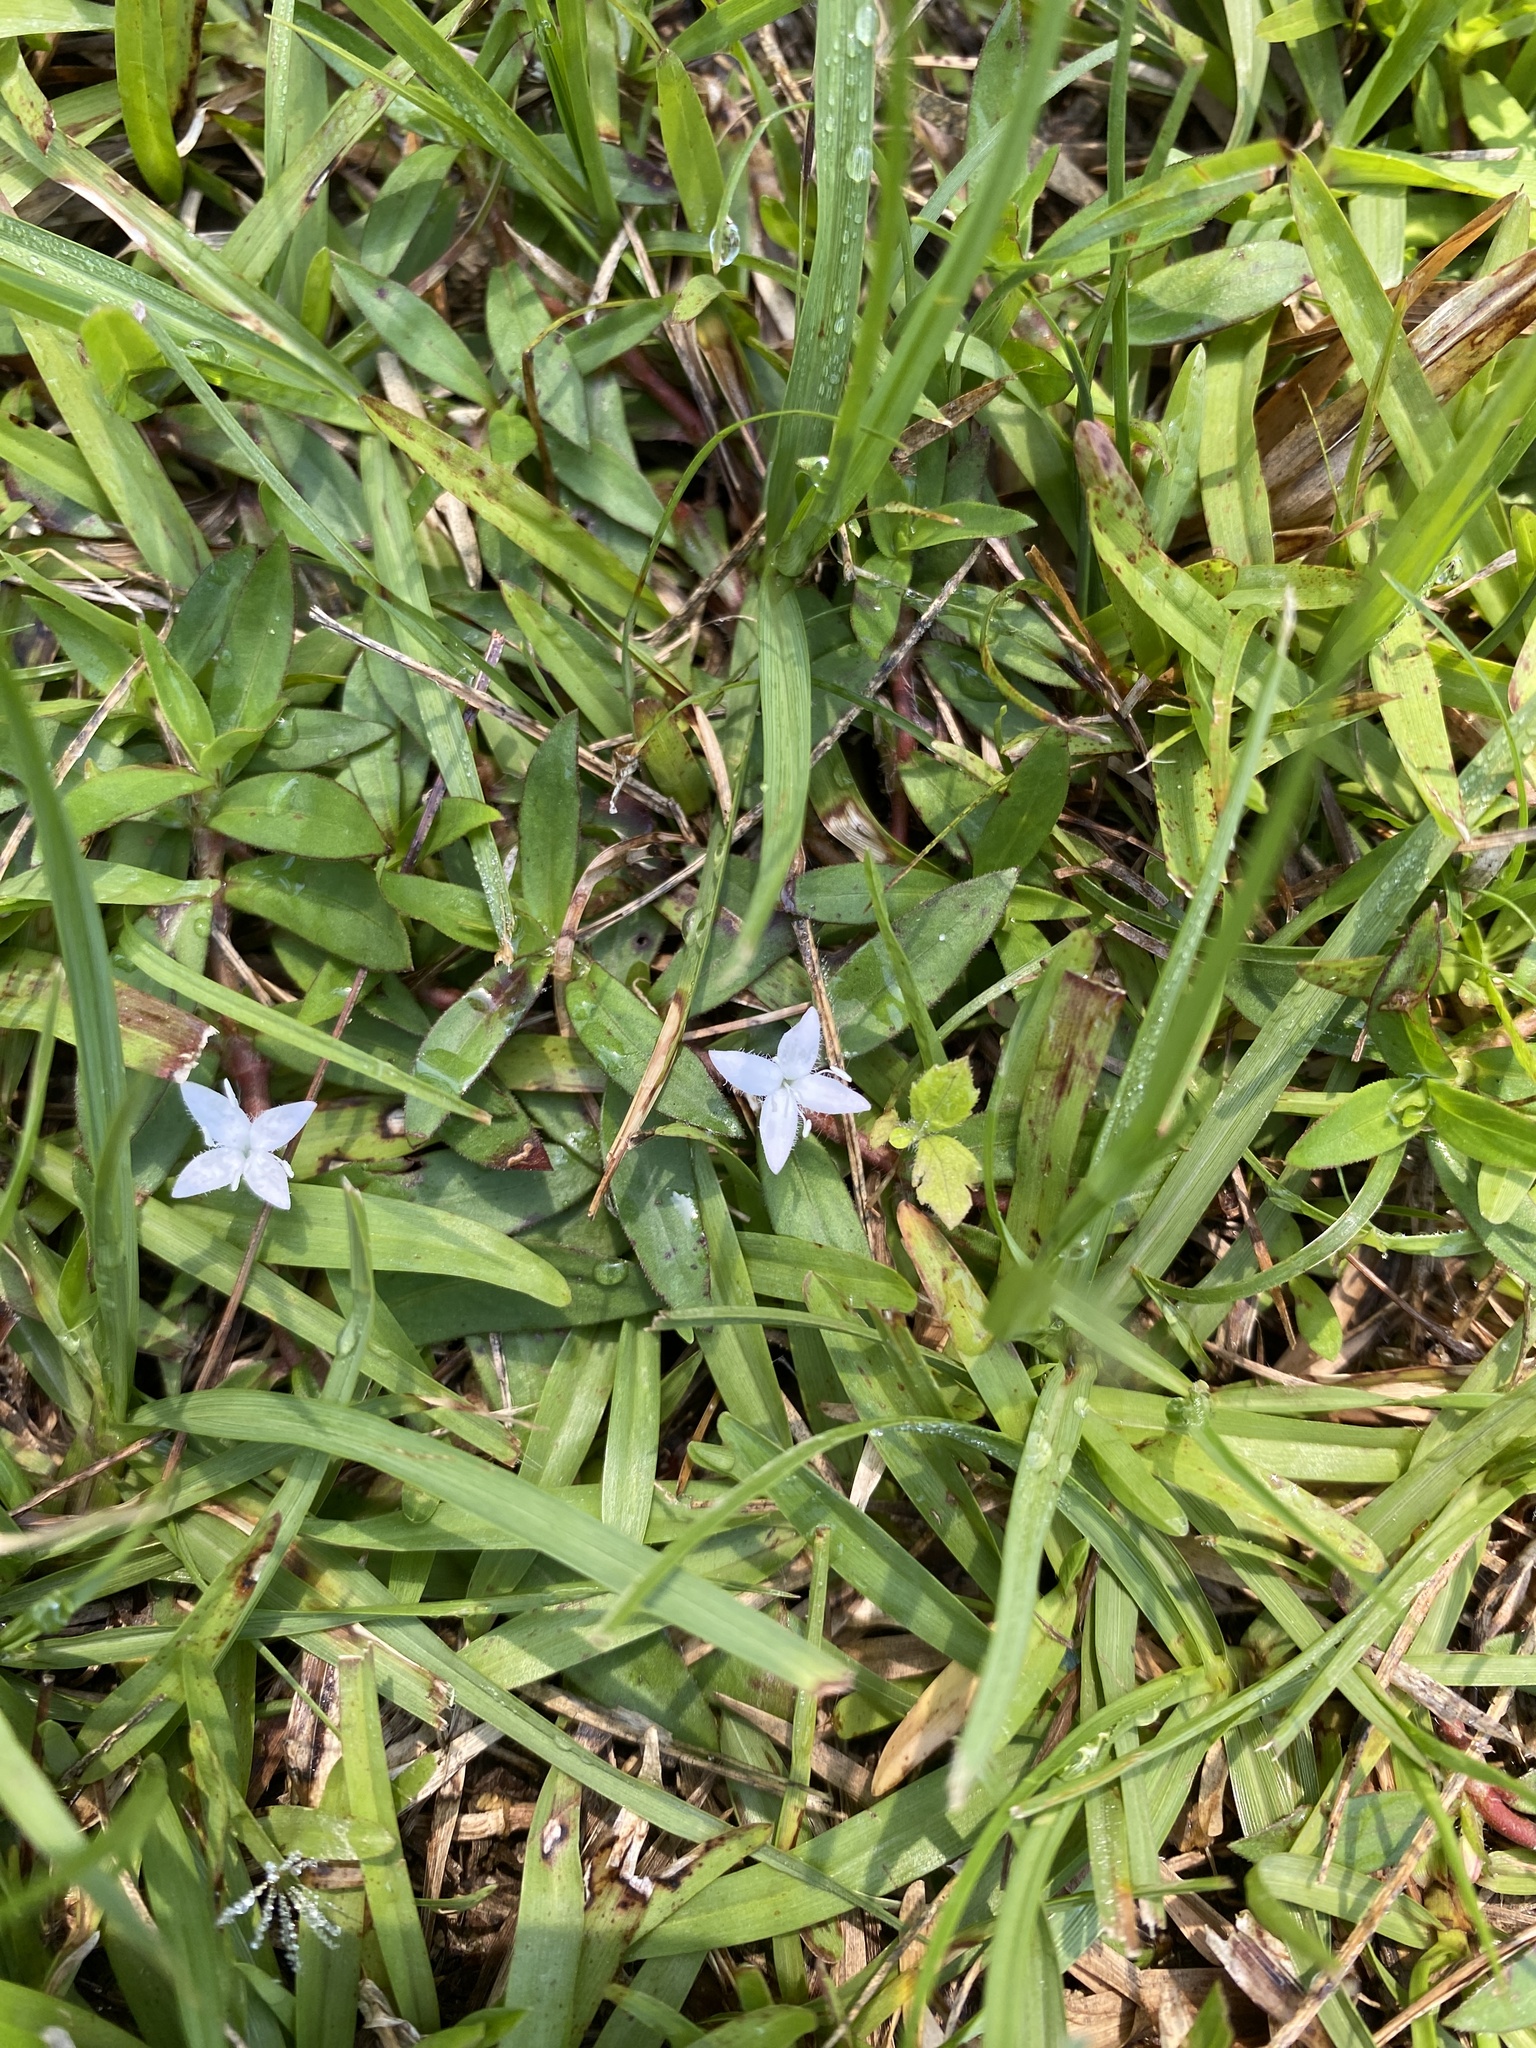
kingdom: Plantae
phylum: Tracheophyta
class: Magnoliopsida
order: Gentianales
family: Rubiaceae
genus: Diodia
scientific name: Diodia virginiana
